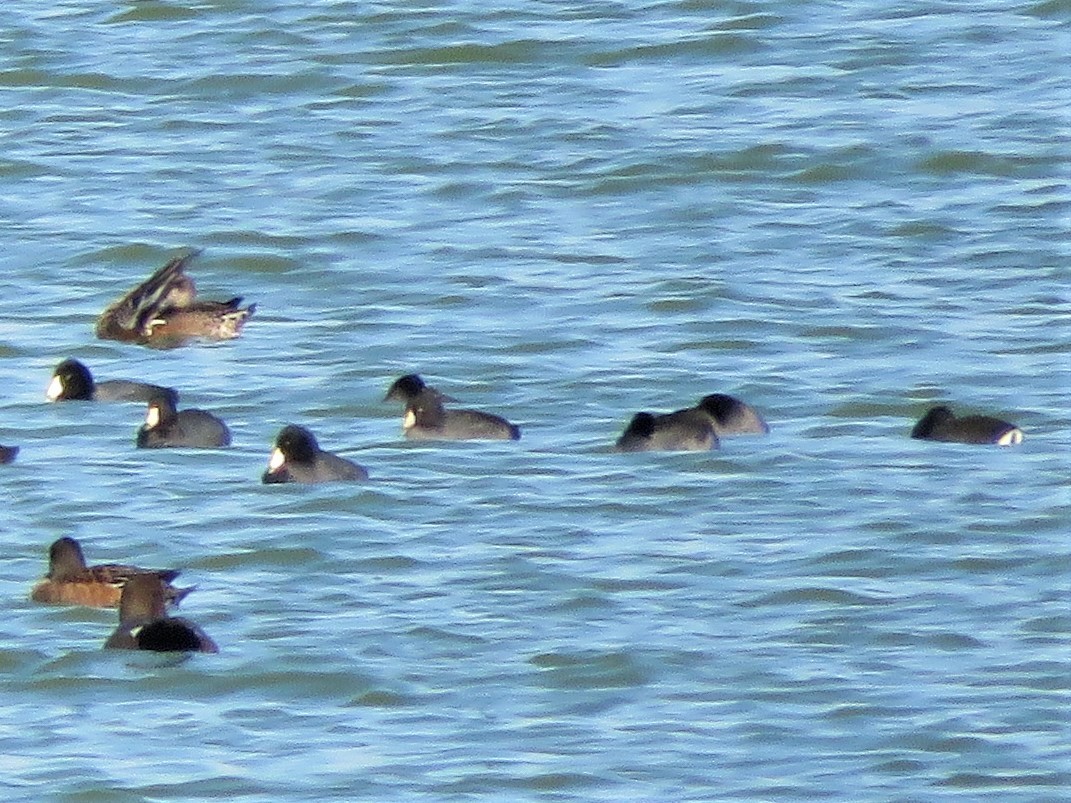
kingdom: Animalia
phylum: Chordata
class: Aves
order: Gruiformes
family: Rallidae
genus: Fulica
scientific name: Fulica americana
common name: American coot
